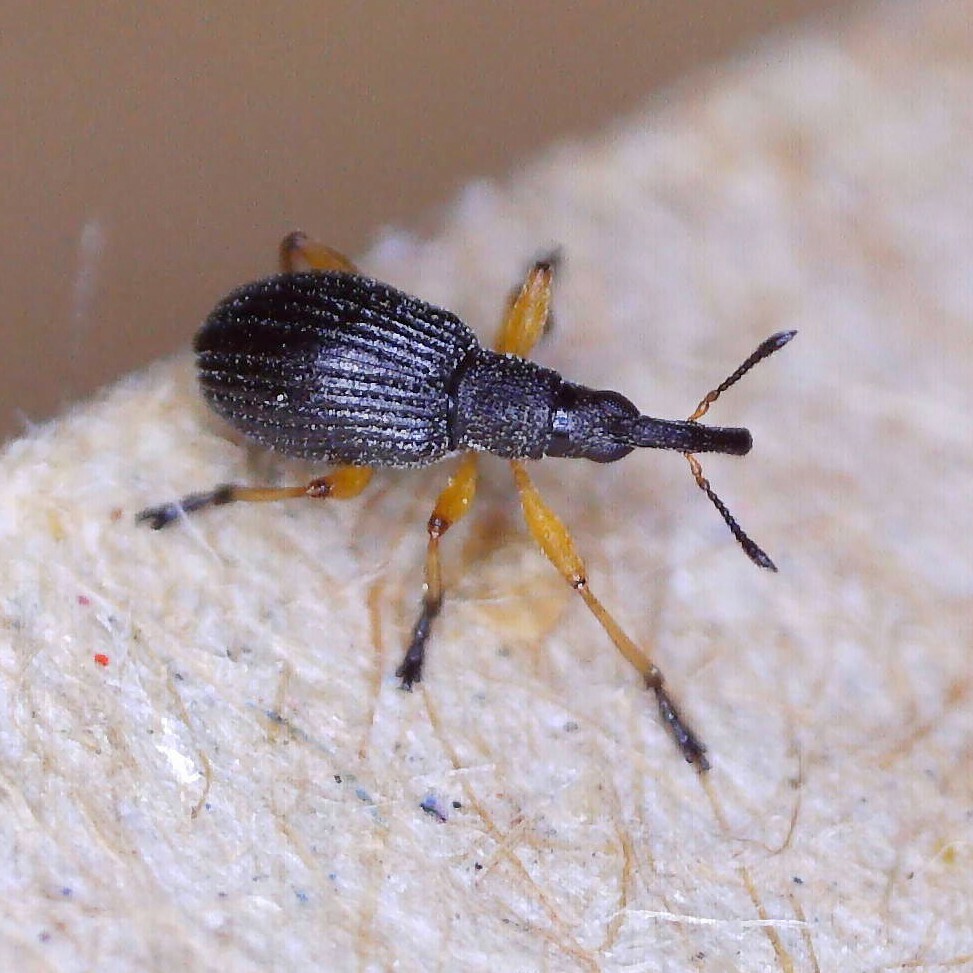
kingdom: Animalia
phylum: Arthropoda
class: Insecta
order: Coleoptera
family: Apionidae
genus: Protapion
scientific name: Protapion fulvipes
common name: White clover seed weevil
